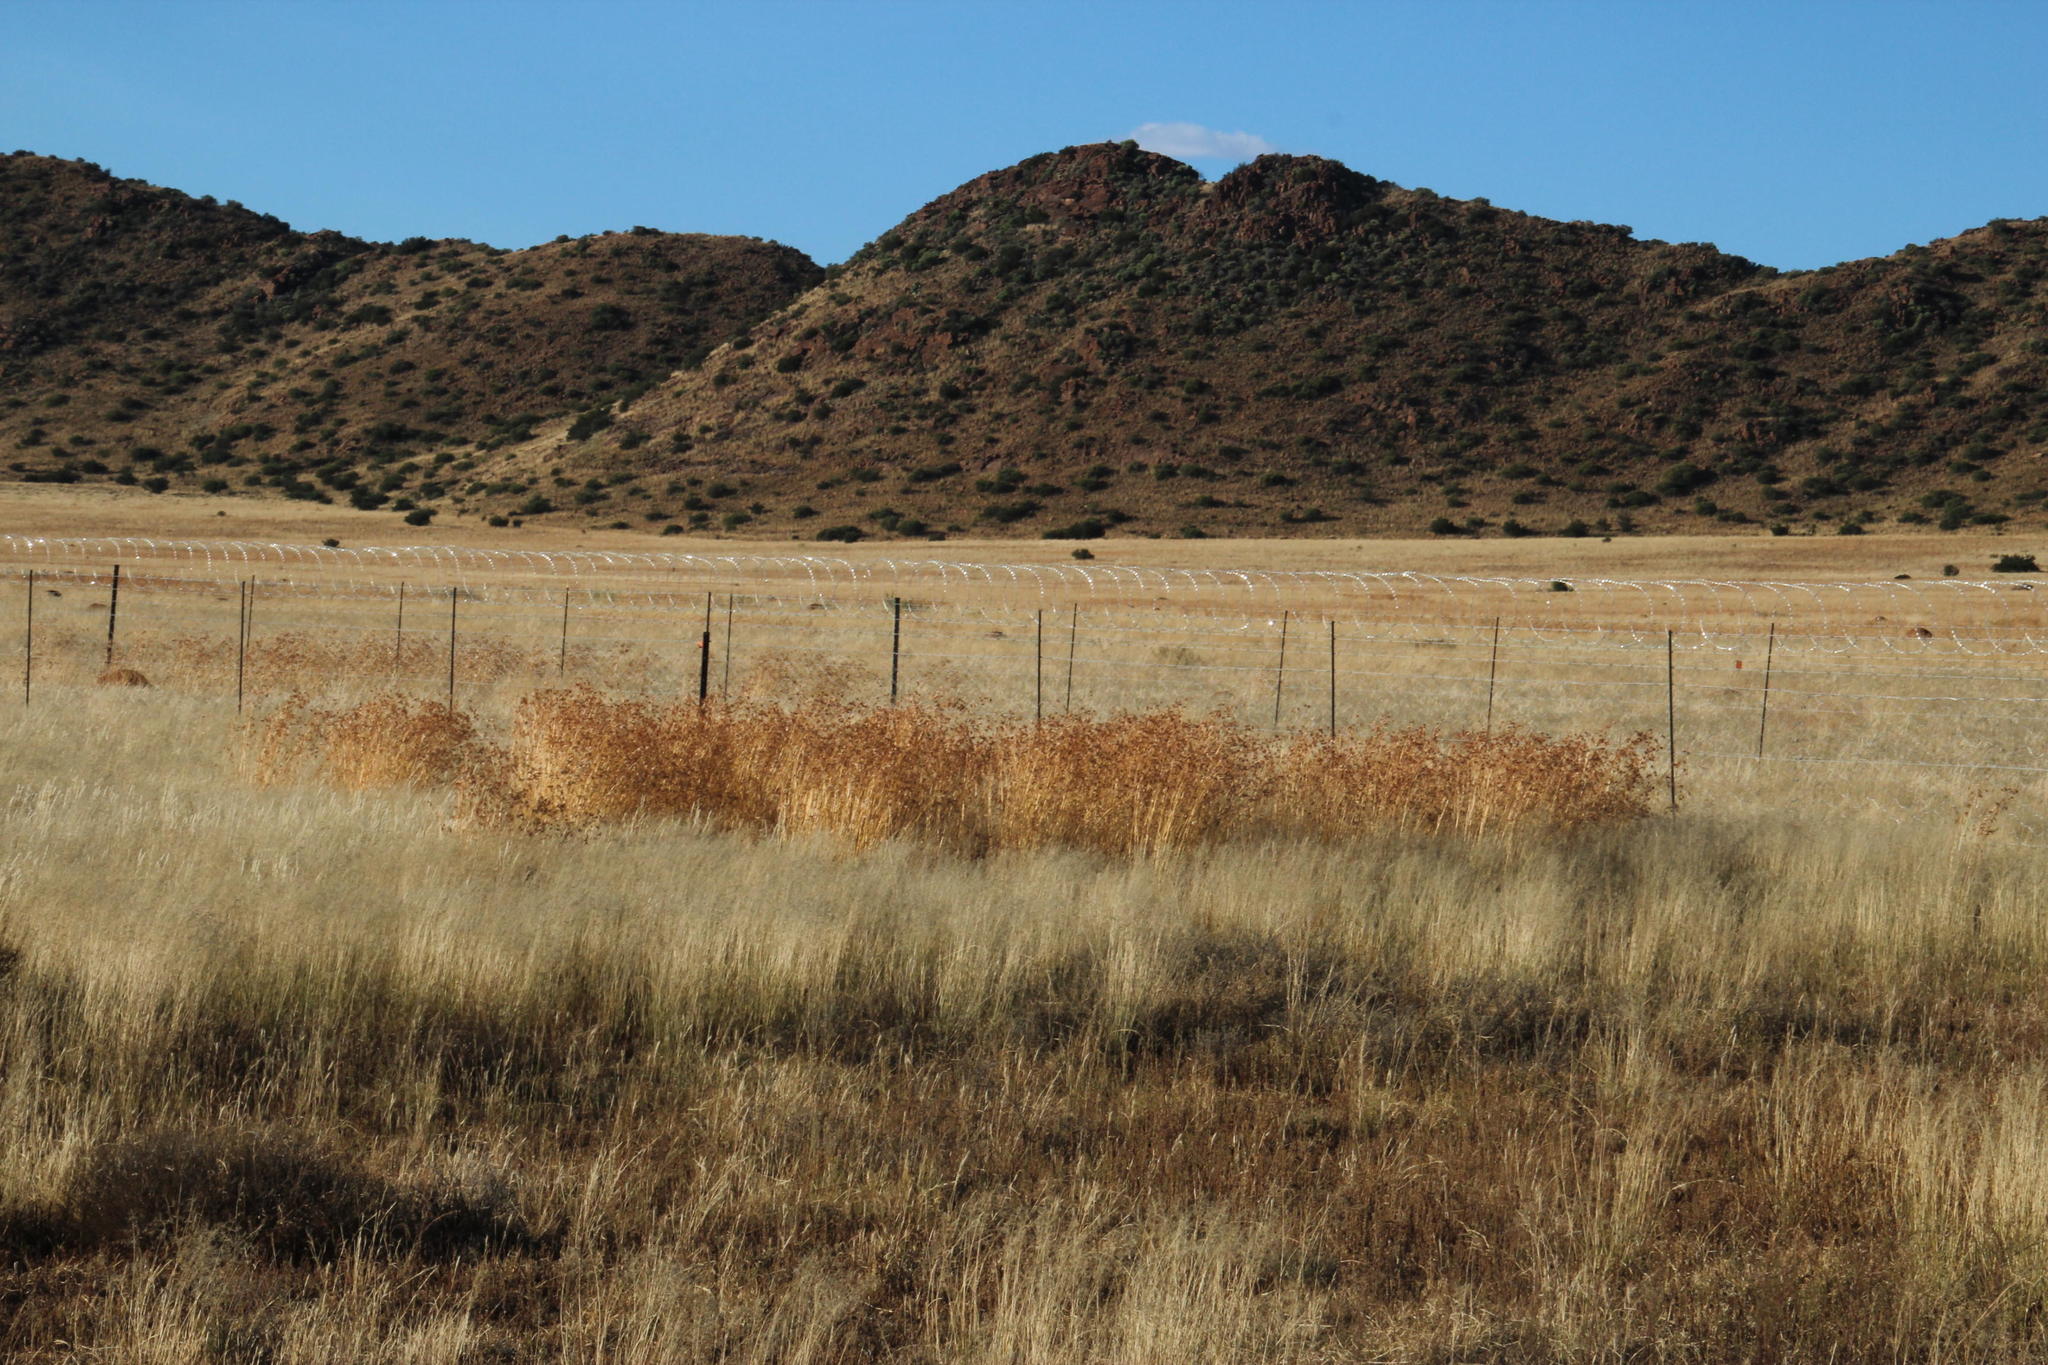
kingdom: Plantae
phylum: Tracheophyta
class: Liliopsida
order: Poales
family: Poaceae
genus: Themeda
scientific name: Themeda triandra
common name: Kangaroo grass
